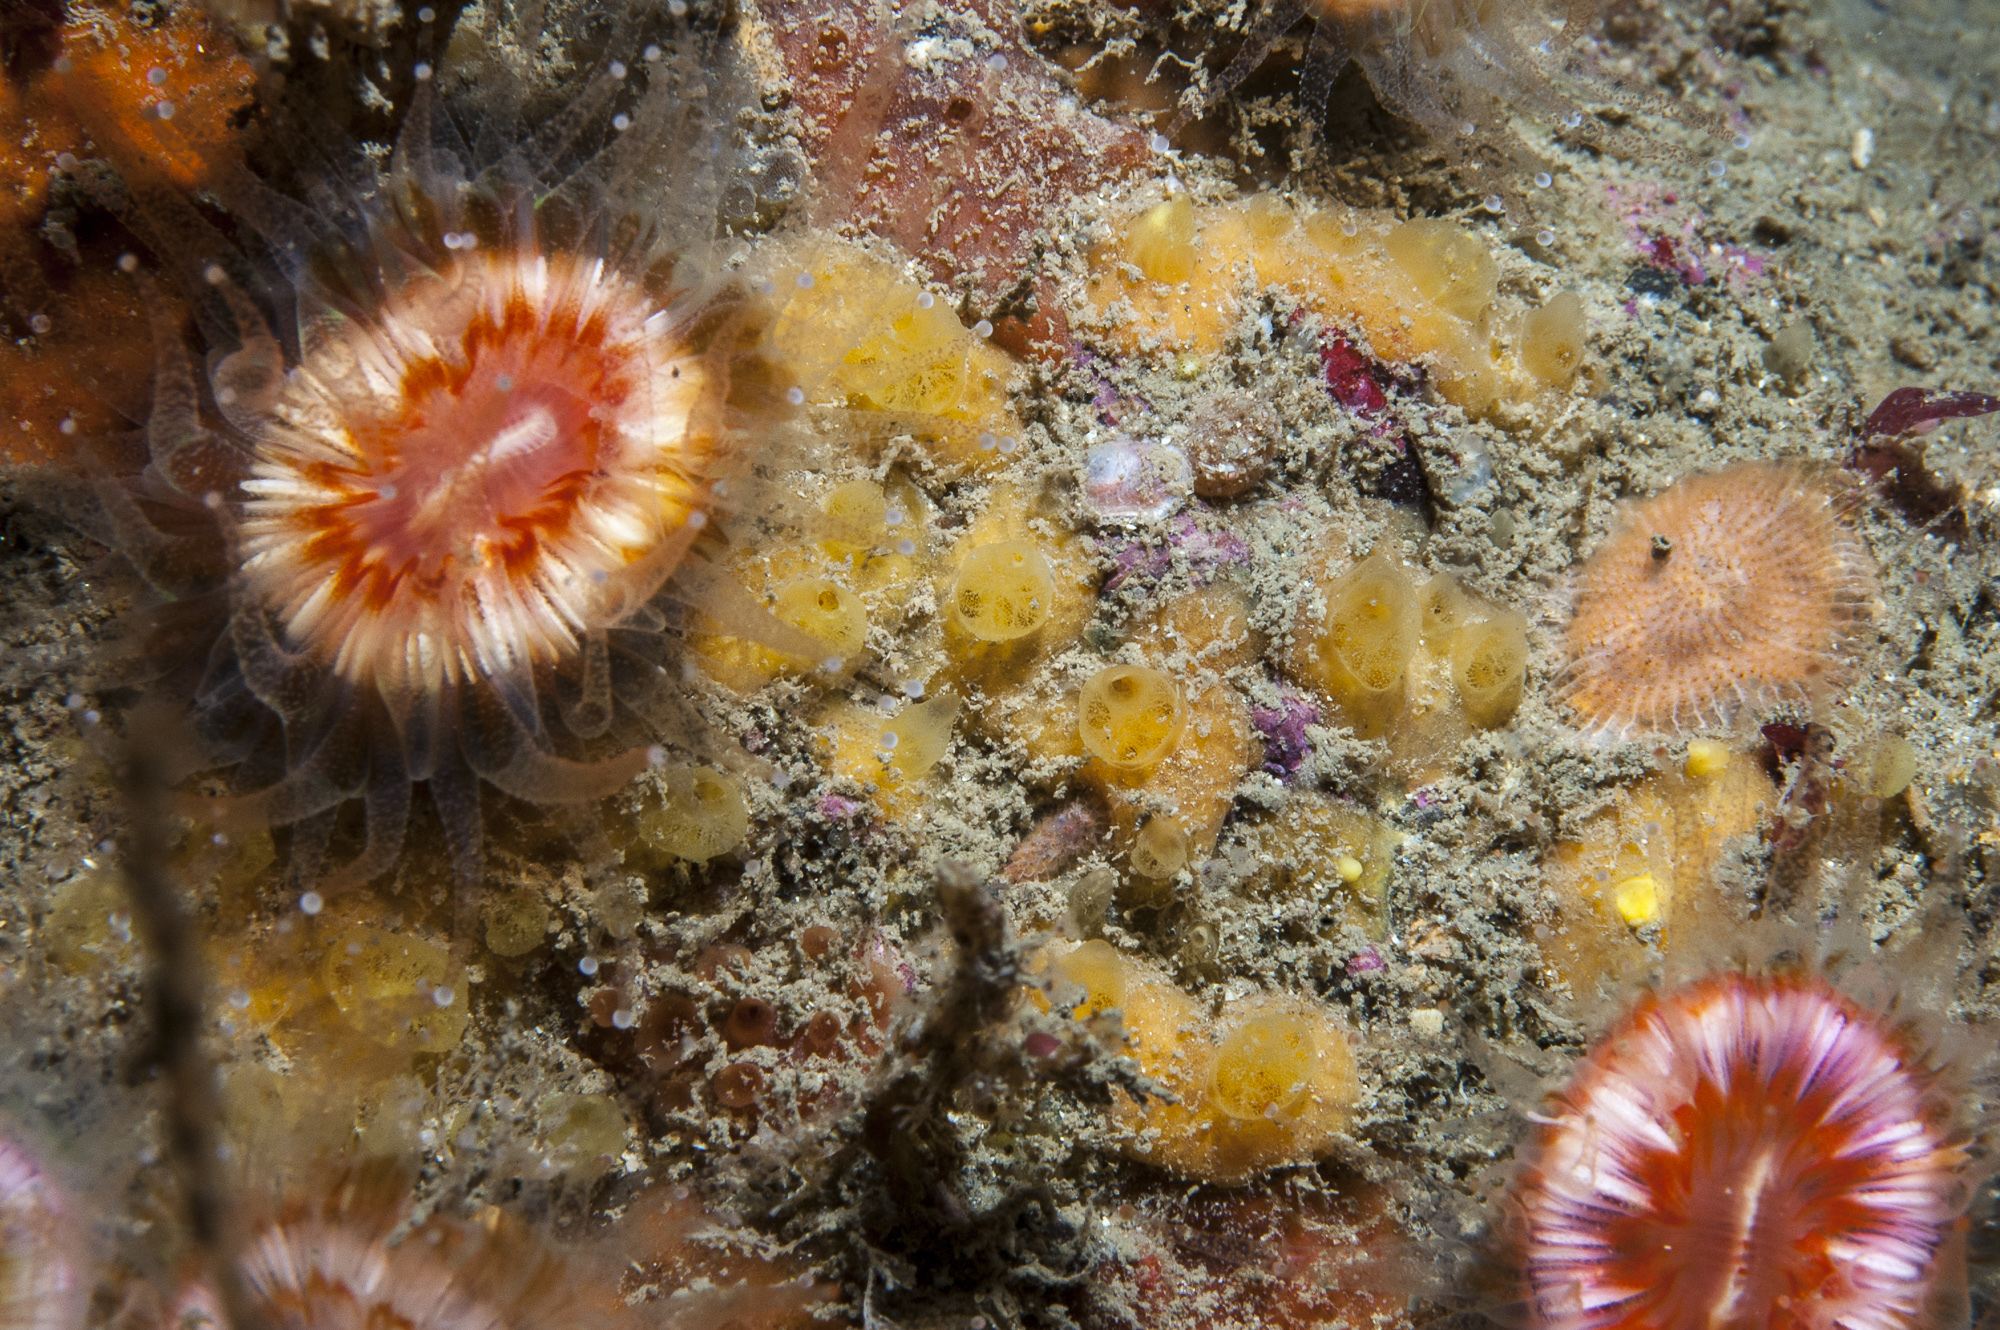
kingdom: Animalia
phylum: Porifera
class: Demospongiae
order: Poecilosclerida
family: Hymedesmiidae
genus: Hymedesmia
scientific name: Hymedesmia rathlinia
